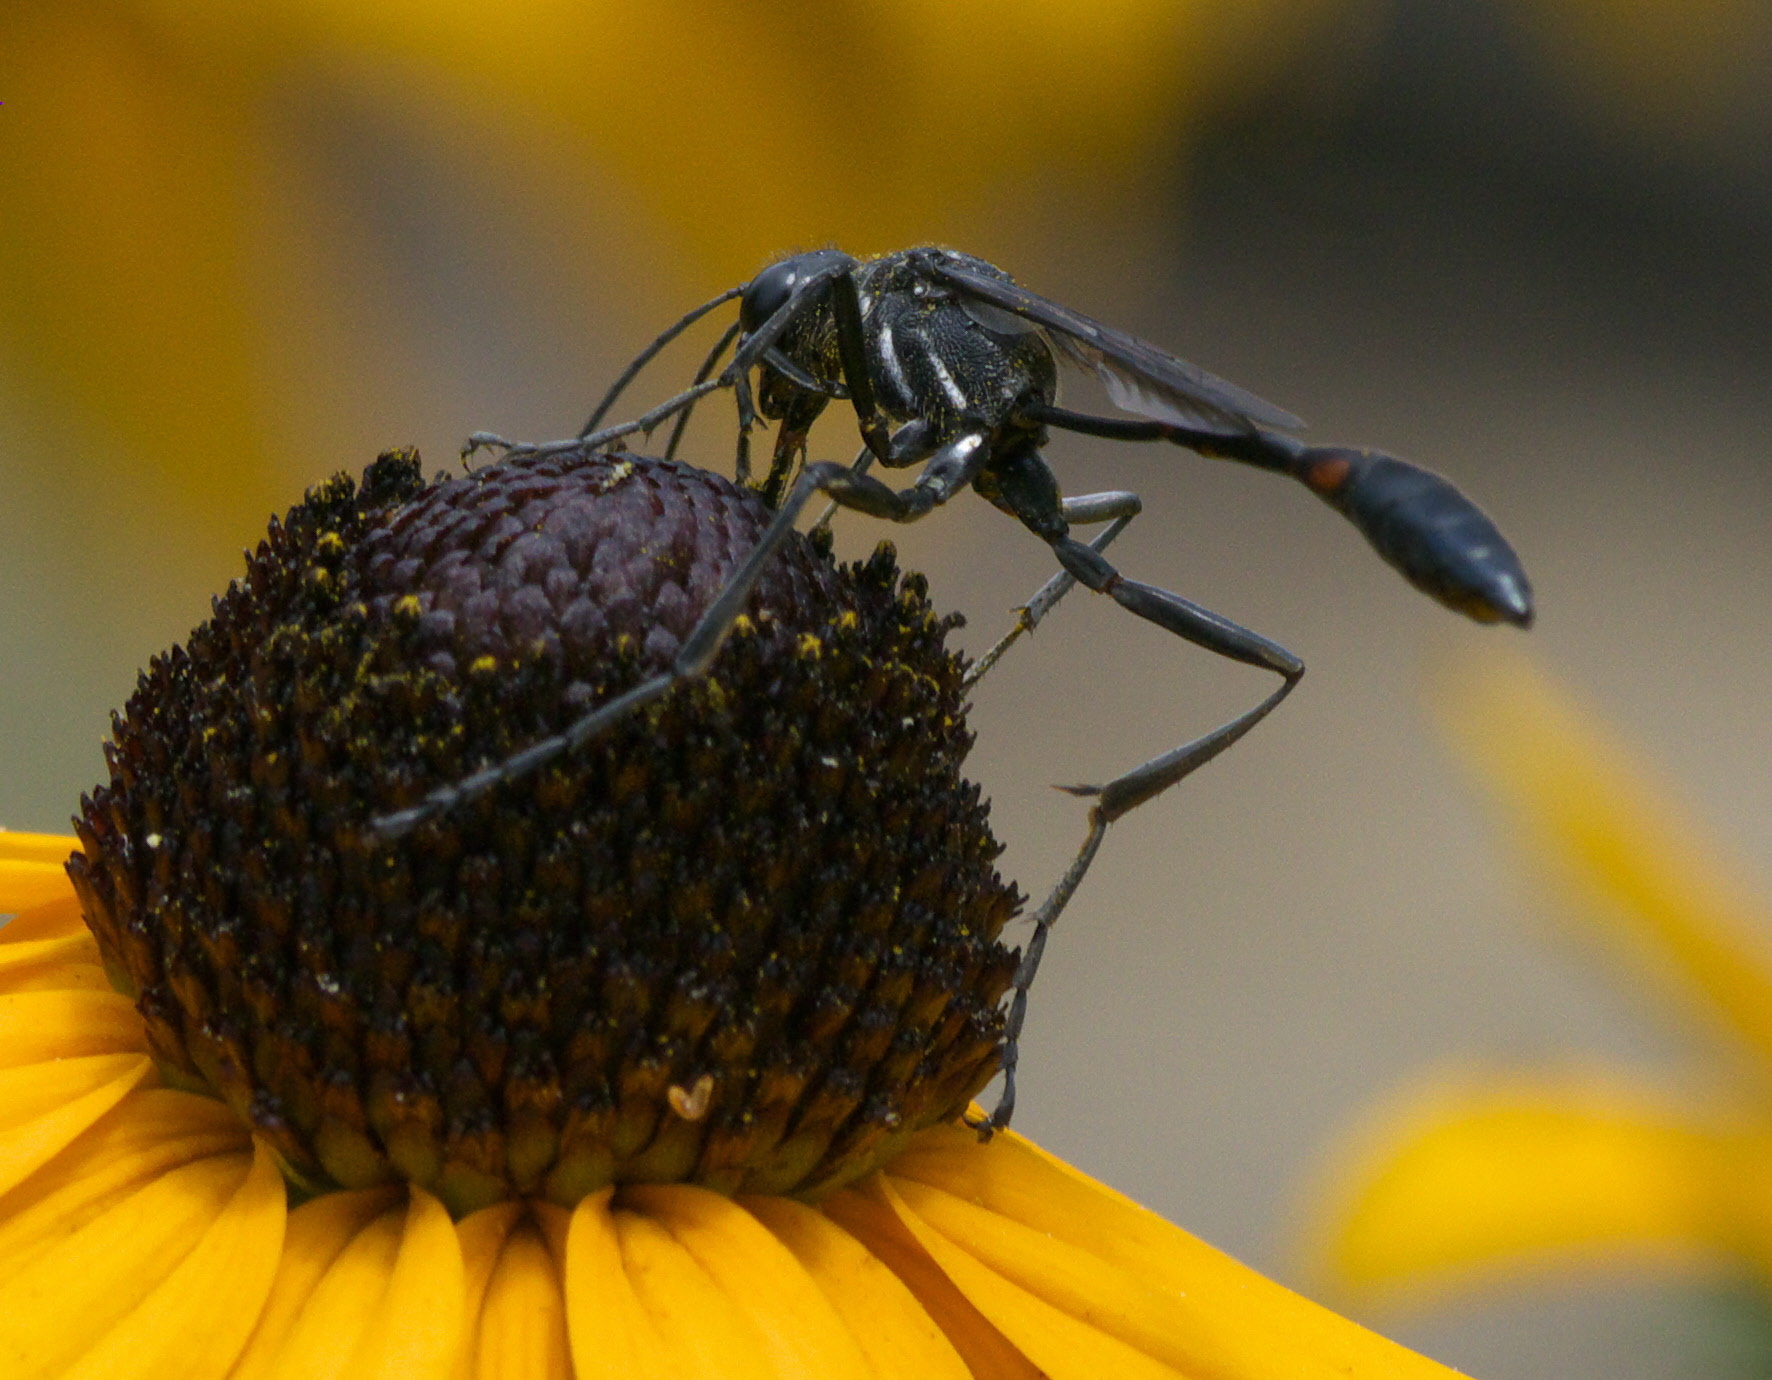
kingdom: Animalia
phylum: Arthropoda
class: Insecta
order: Hymenoptera
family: Sphecidae
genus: Ammophila
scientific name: Ammophila procera
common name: Common thread-waisted wasp
